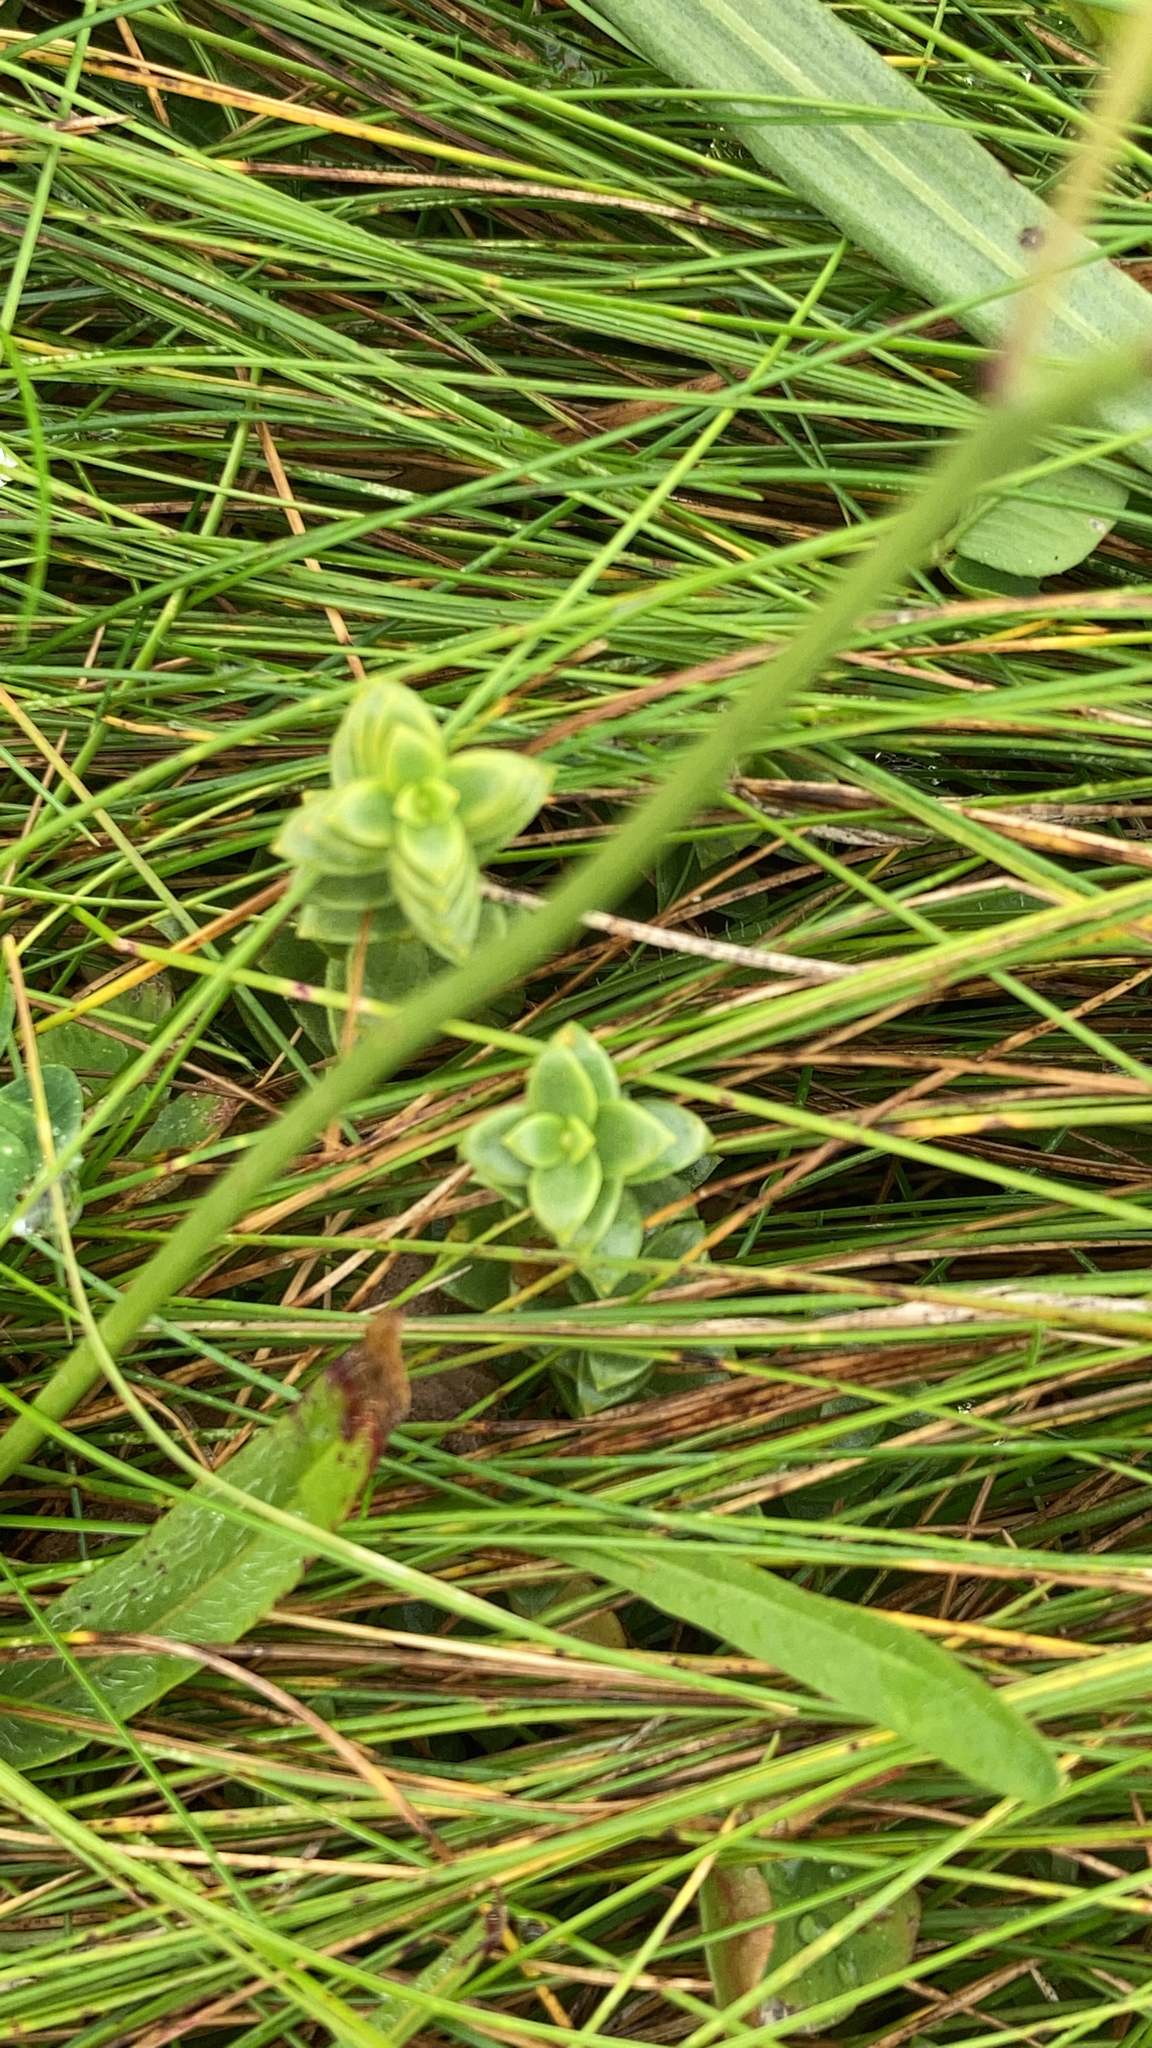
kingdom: Plantae
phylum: Tracheophyta
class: Magnoliopsida
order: Caryophyllales
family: Caryophyllaceae
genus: Honckenya
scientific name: Honckenya peploides
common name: Sea sandwort
